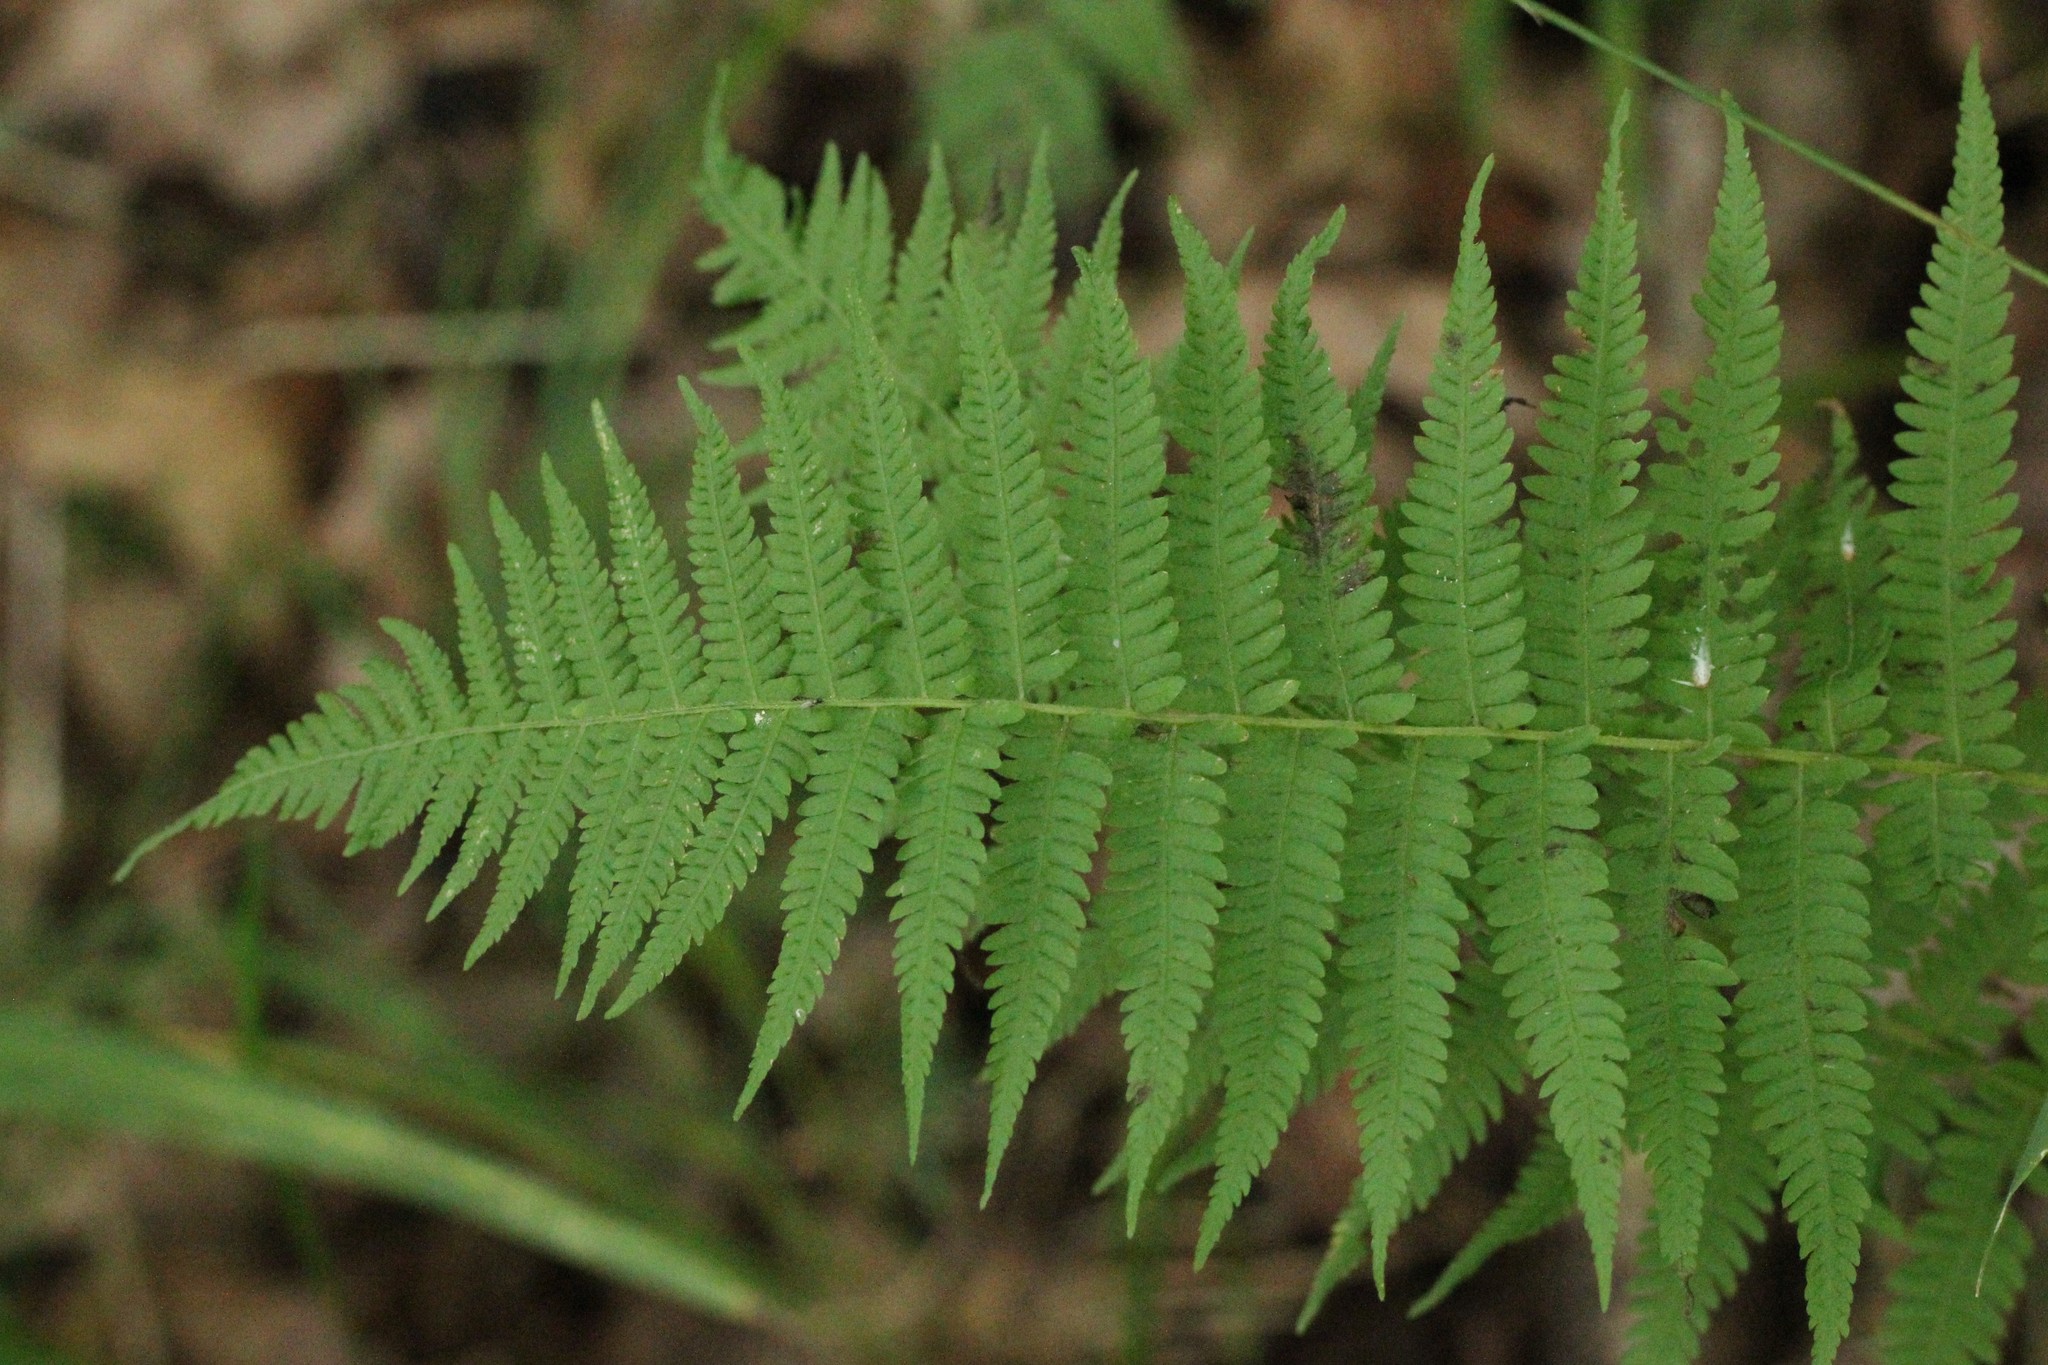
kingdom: Plantae
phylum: Tracheophyta
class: Polypodiopsida
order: Polypodiales
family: Thelypteridaceae
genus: Amauropelta
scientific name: Amauropelta noveboracensis
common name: New york fern
